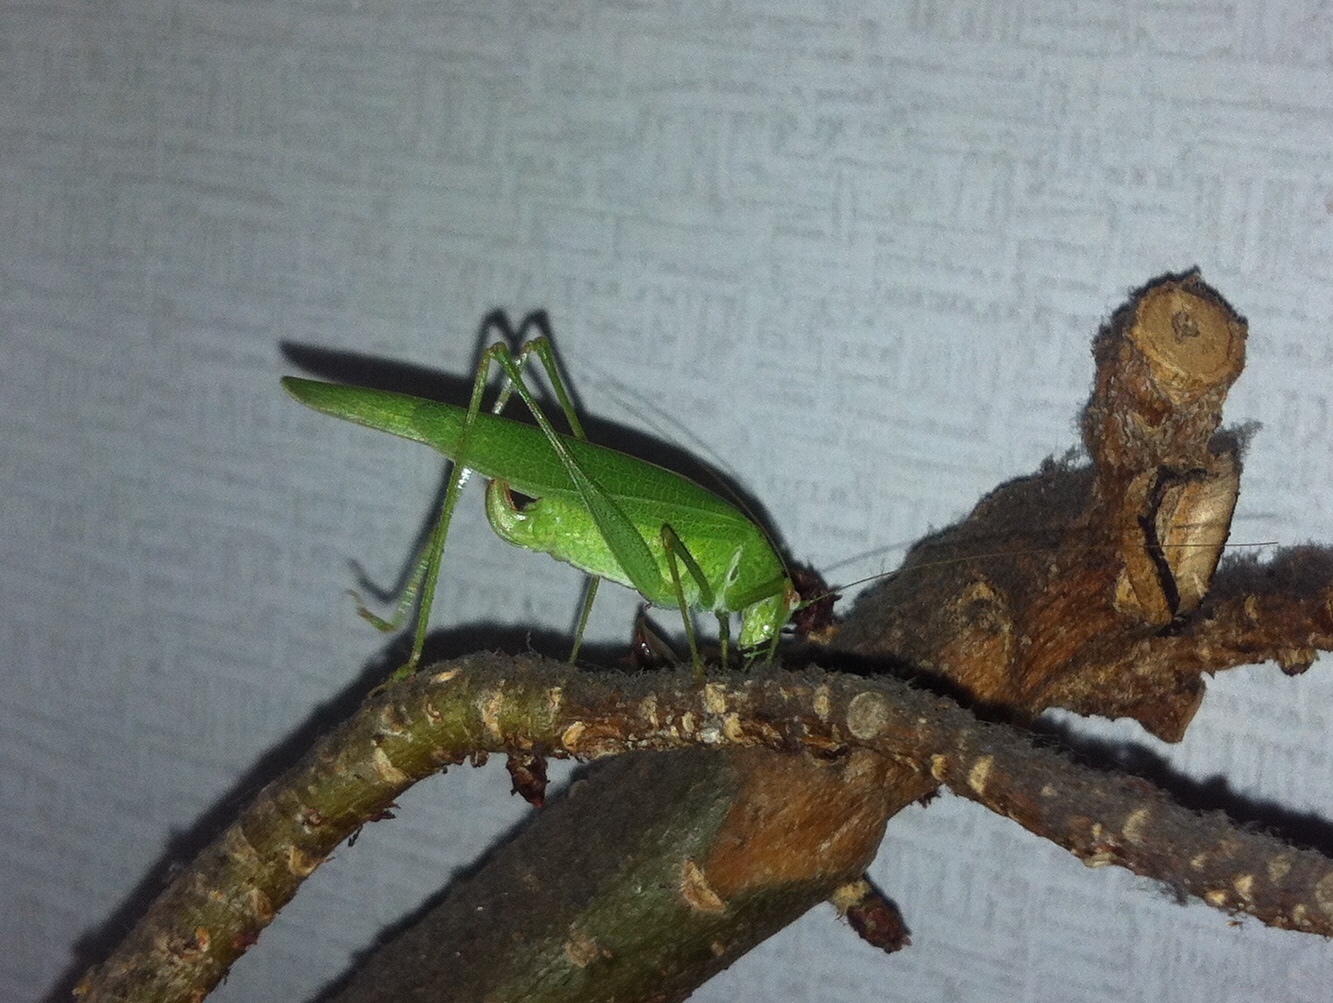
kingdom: Animalia
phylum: Arthropoda
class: Insecta
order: Orthoptera
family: Tettigoniidae
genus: Phaneroptera
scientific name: Phaneroptera nana
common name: Southern sickle bush-cricket
